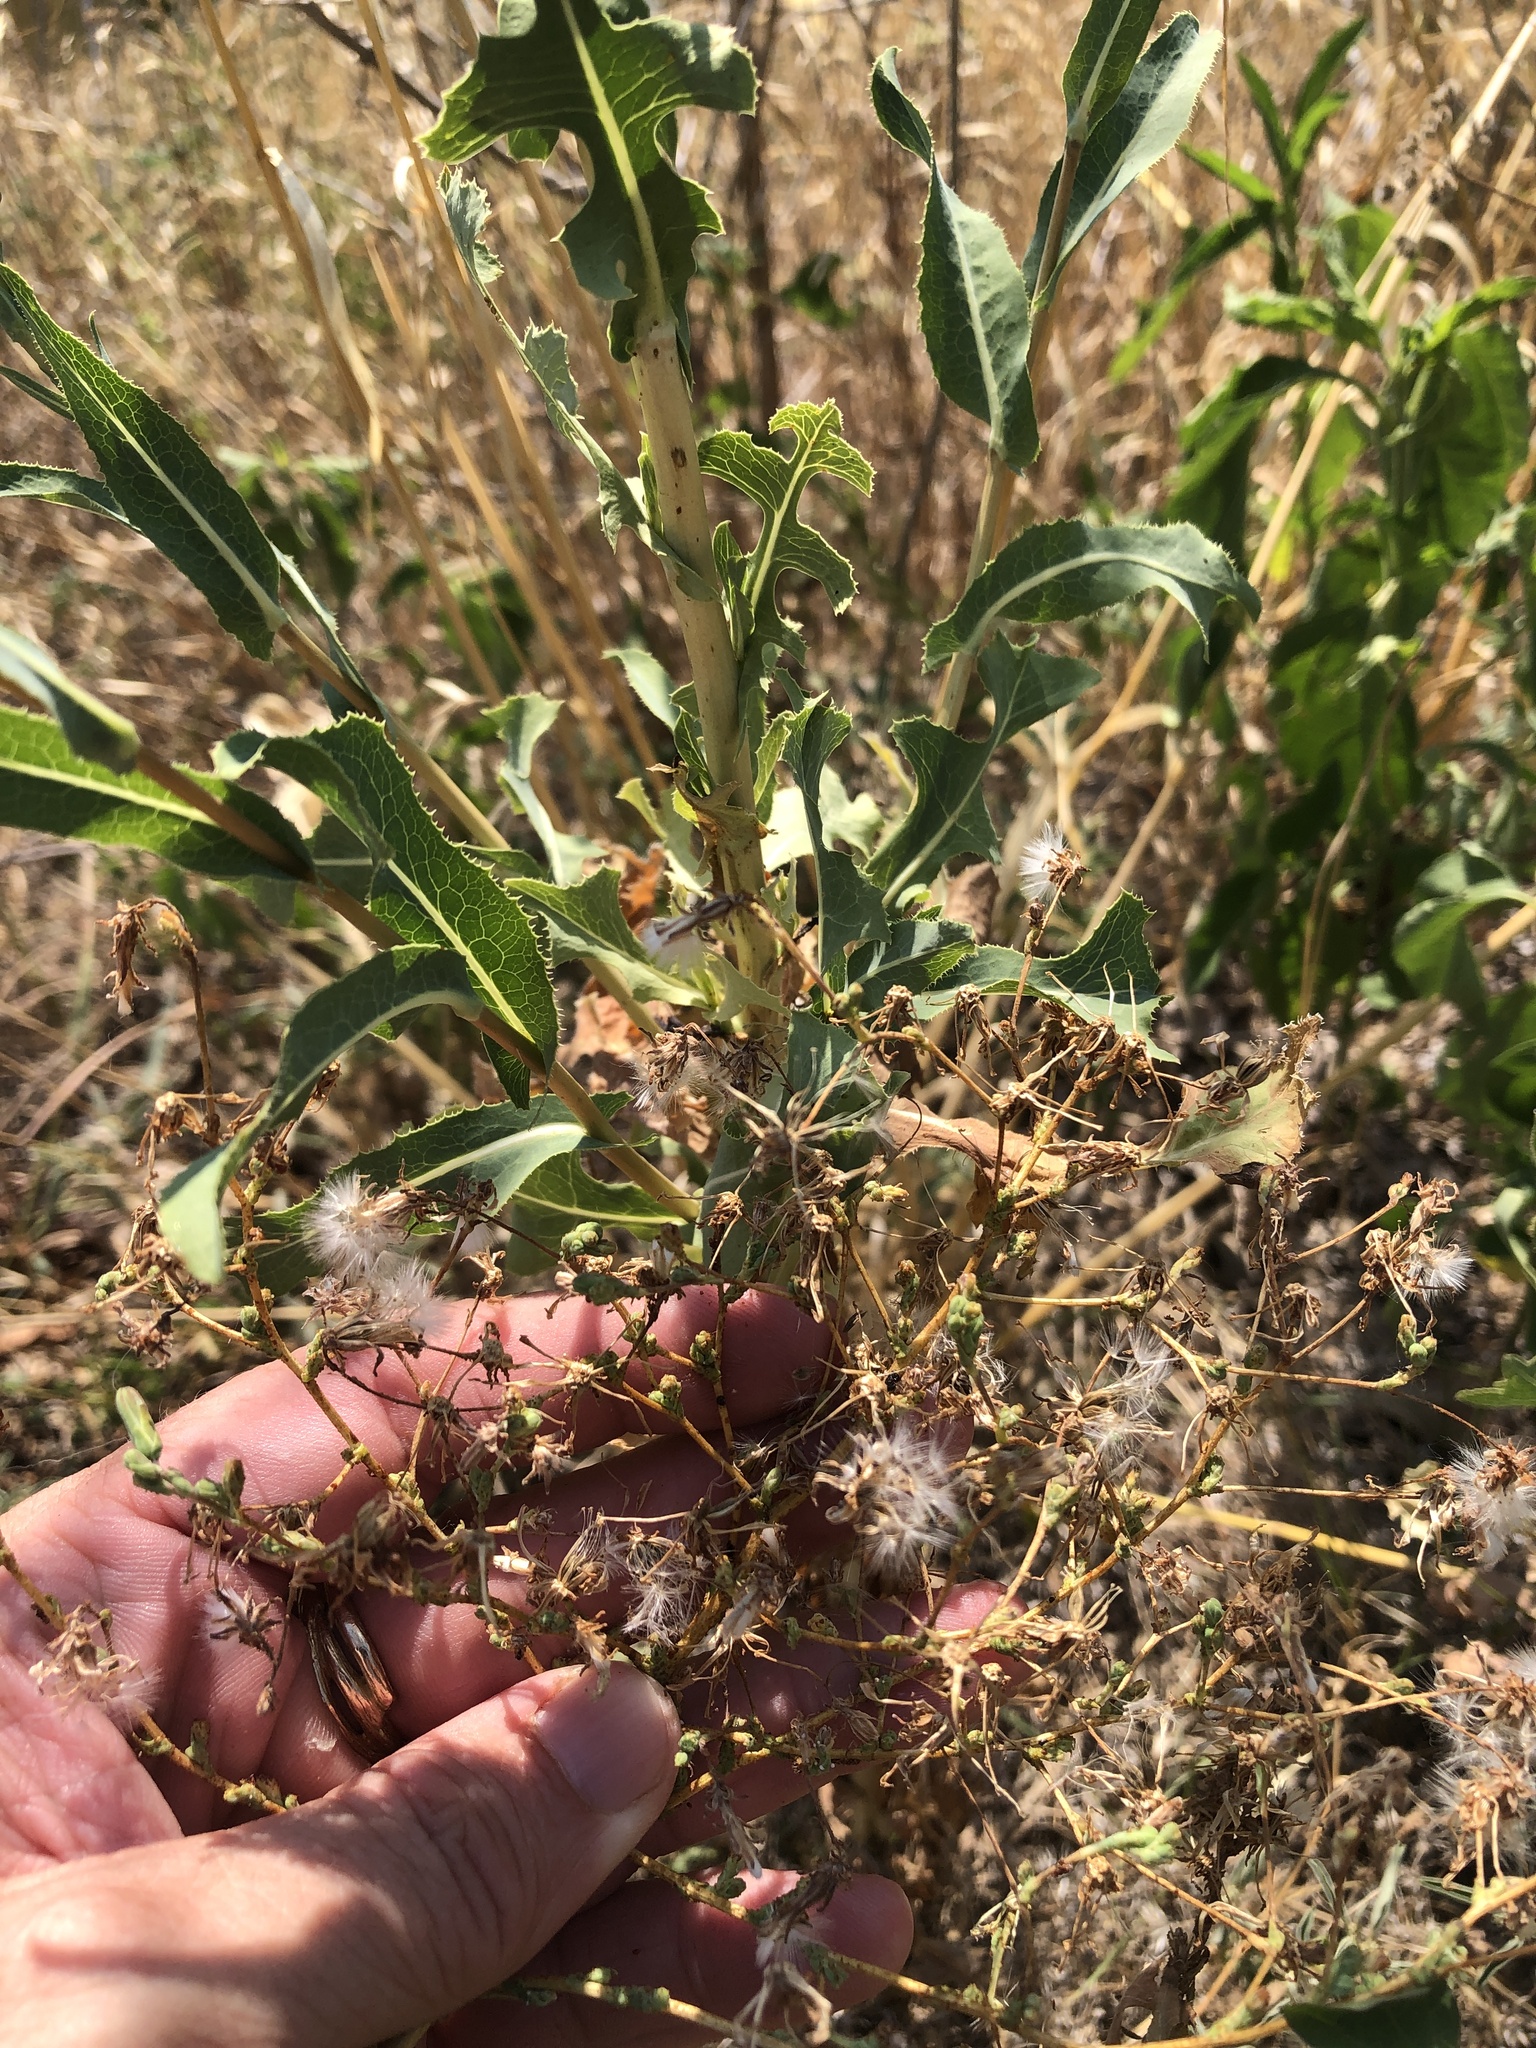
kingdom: Plantae
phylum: Tracheophyta
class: Magnoliopsida
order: Asterales
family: Asteraceae
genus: Lactuca
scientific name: Lactuca serriola
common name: Prickly lettuce
